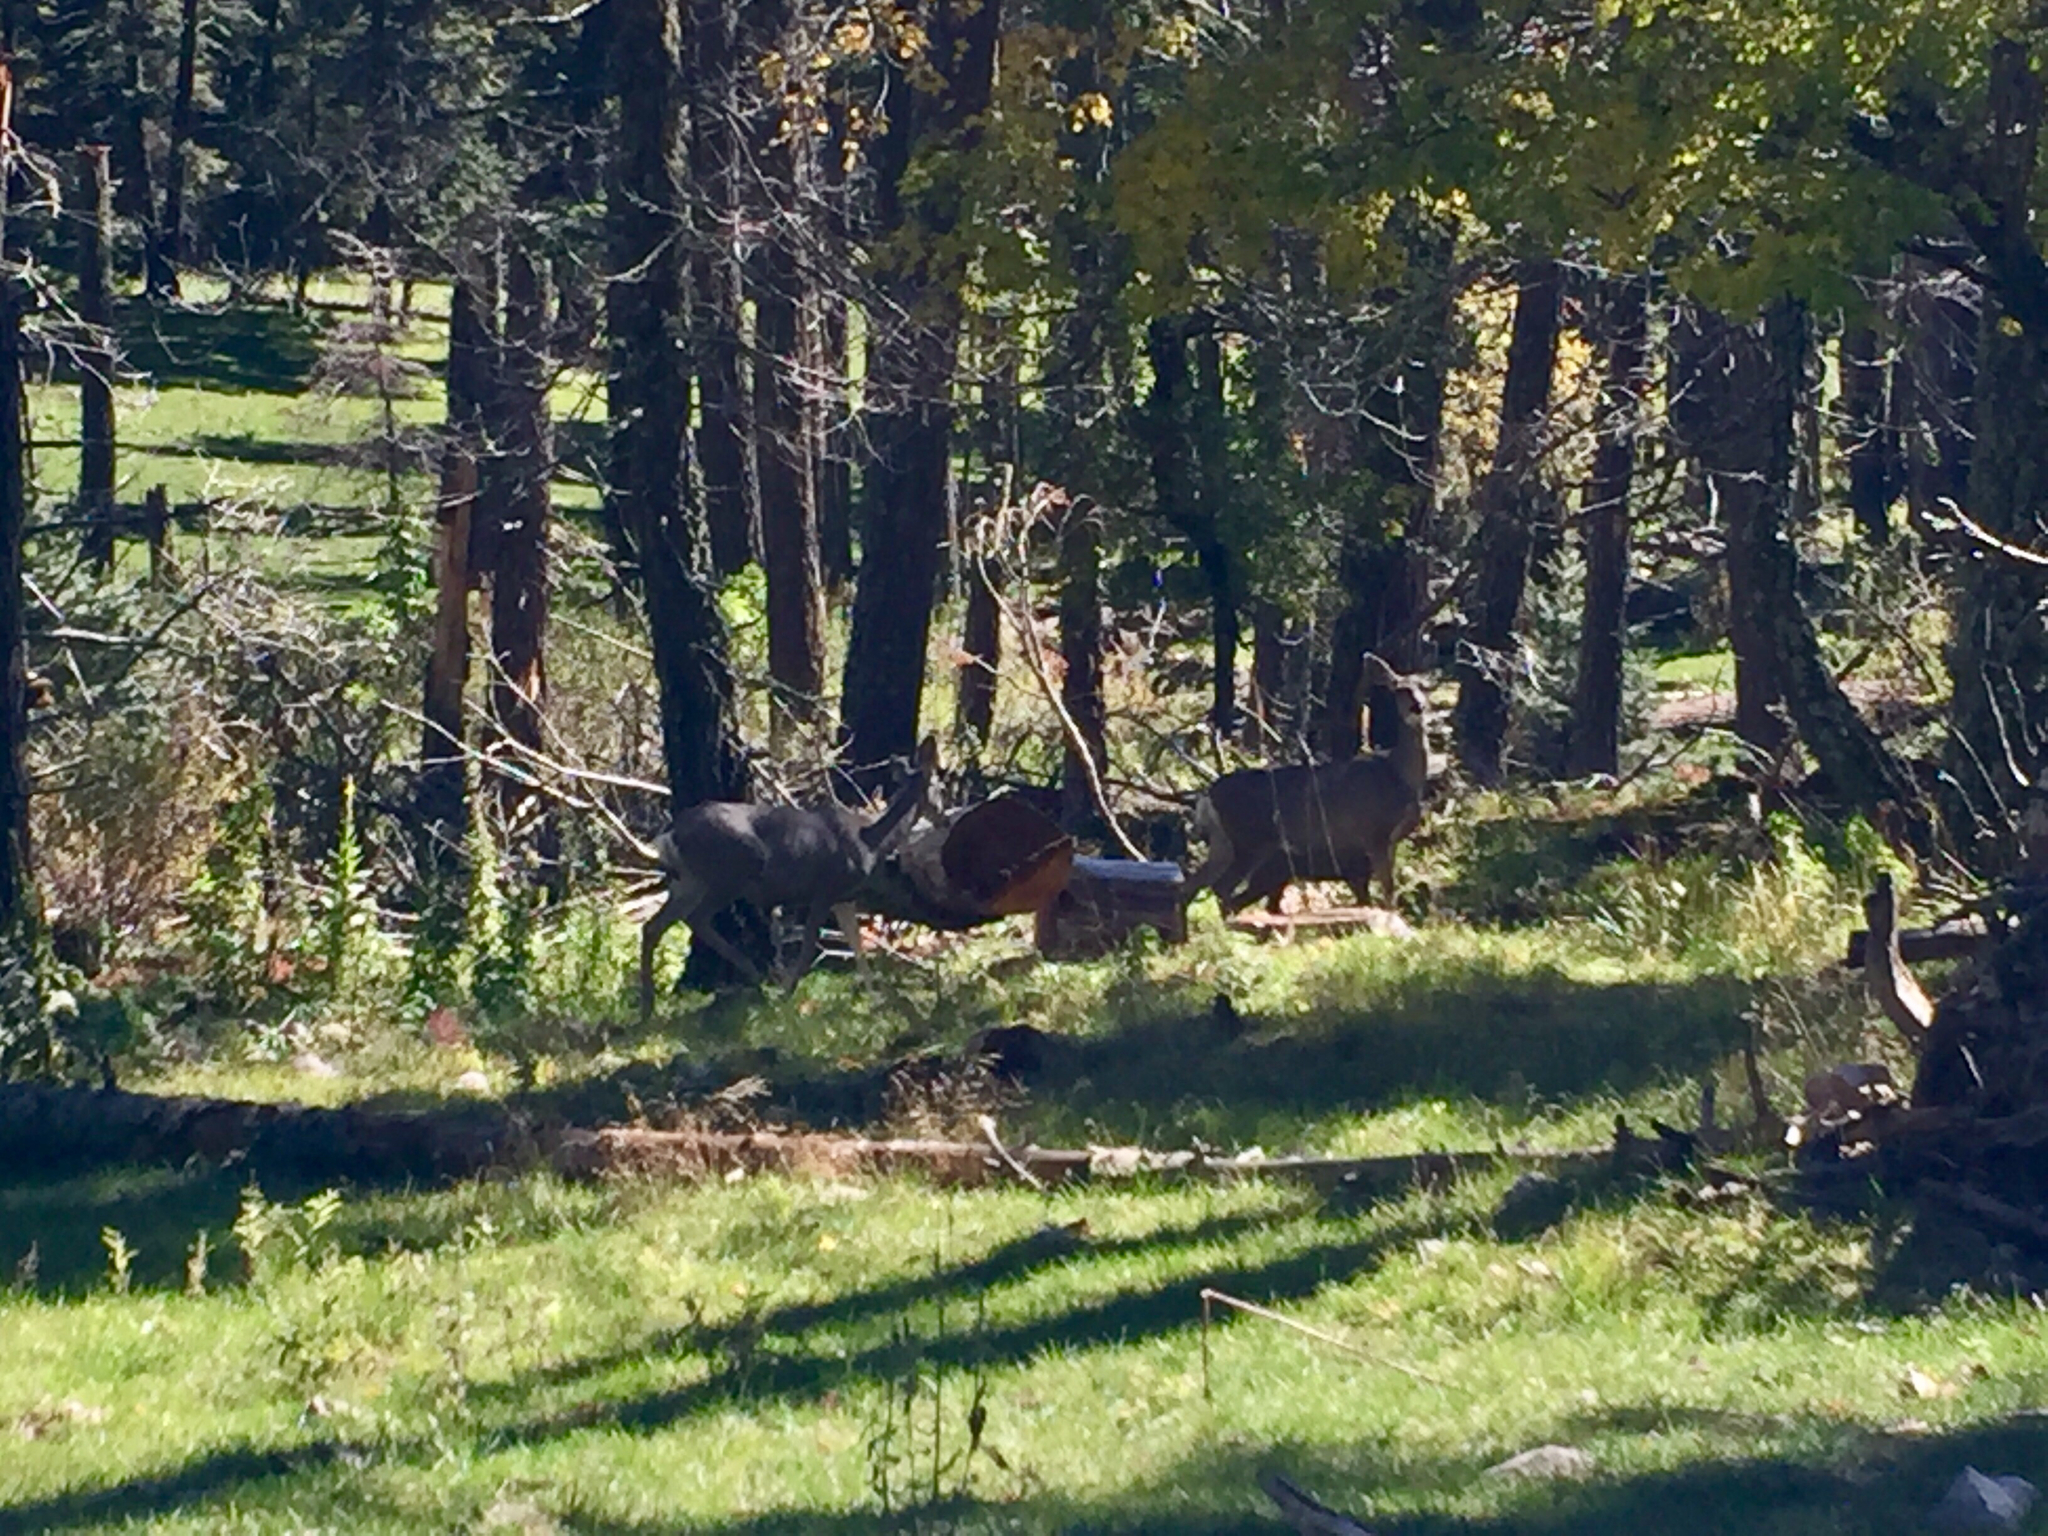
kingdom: Animalia
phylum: Chordata
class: Mammalia
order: Artiodactyla
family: Cervidae
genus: Odocoileus
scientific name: Odocoileus hemionus
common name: Mule deer
